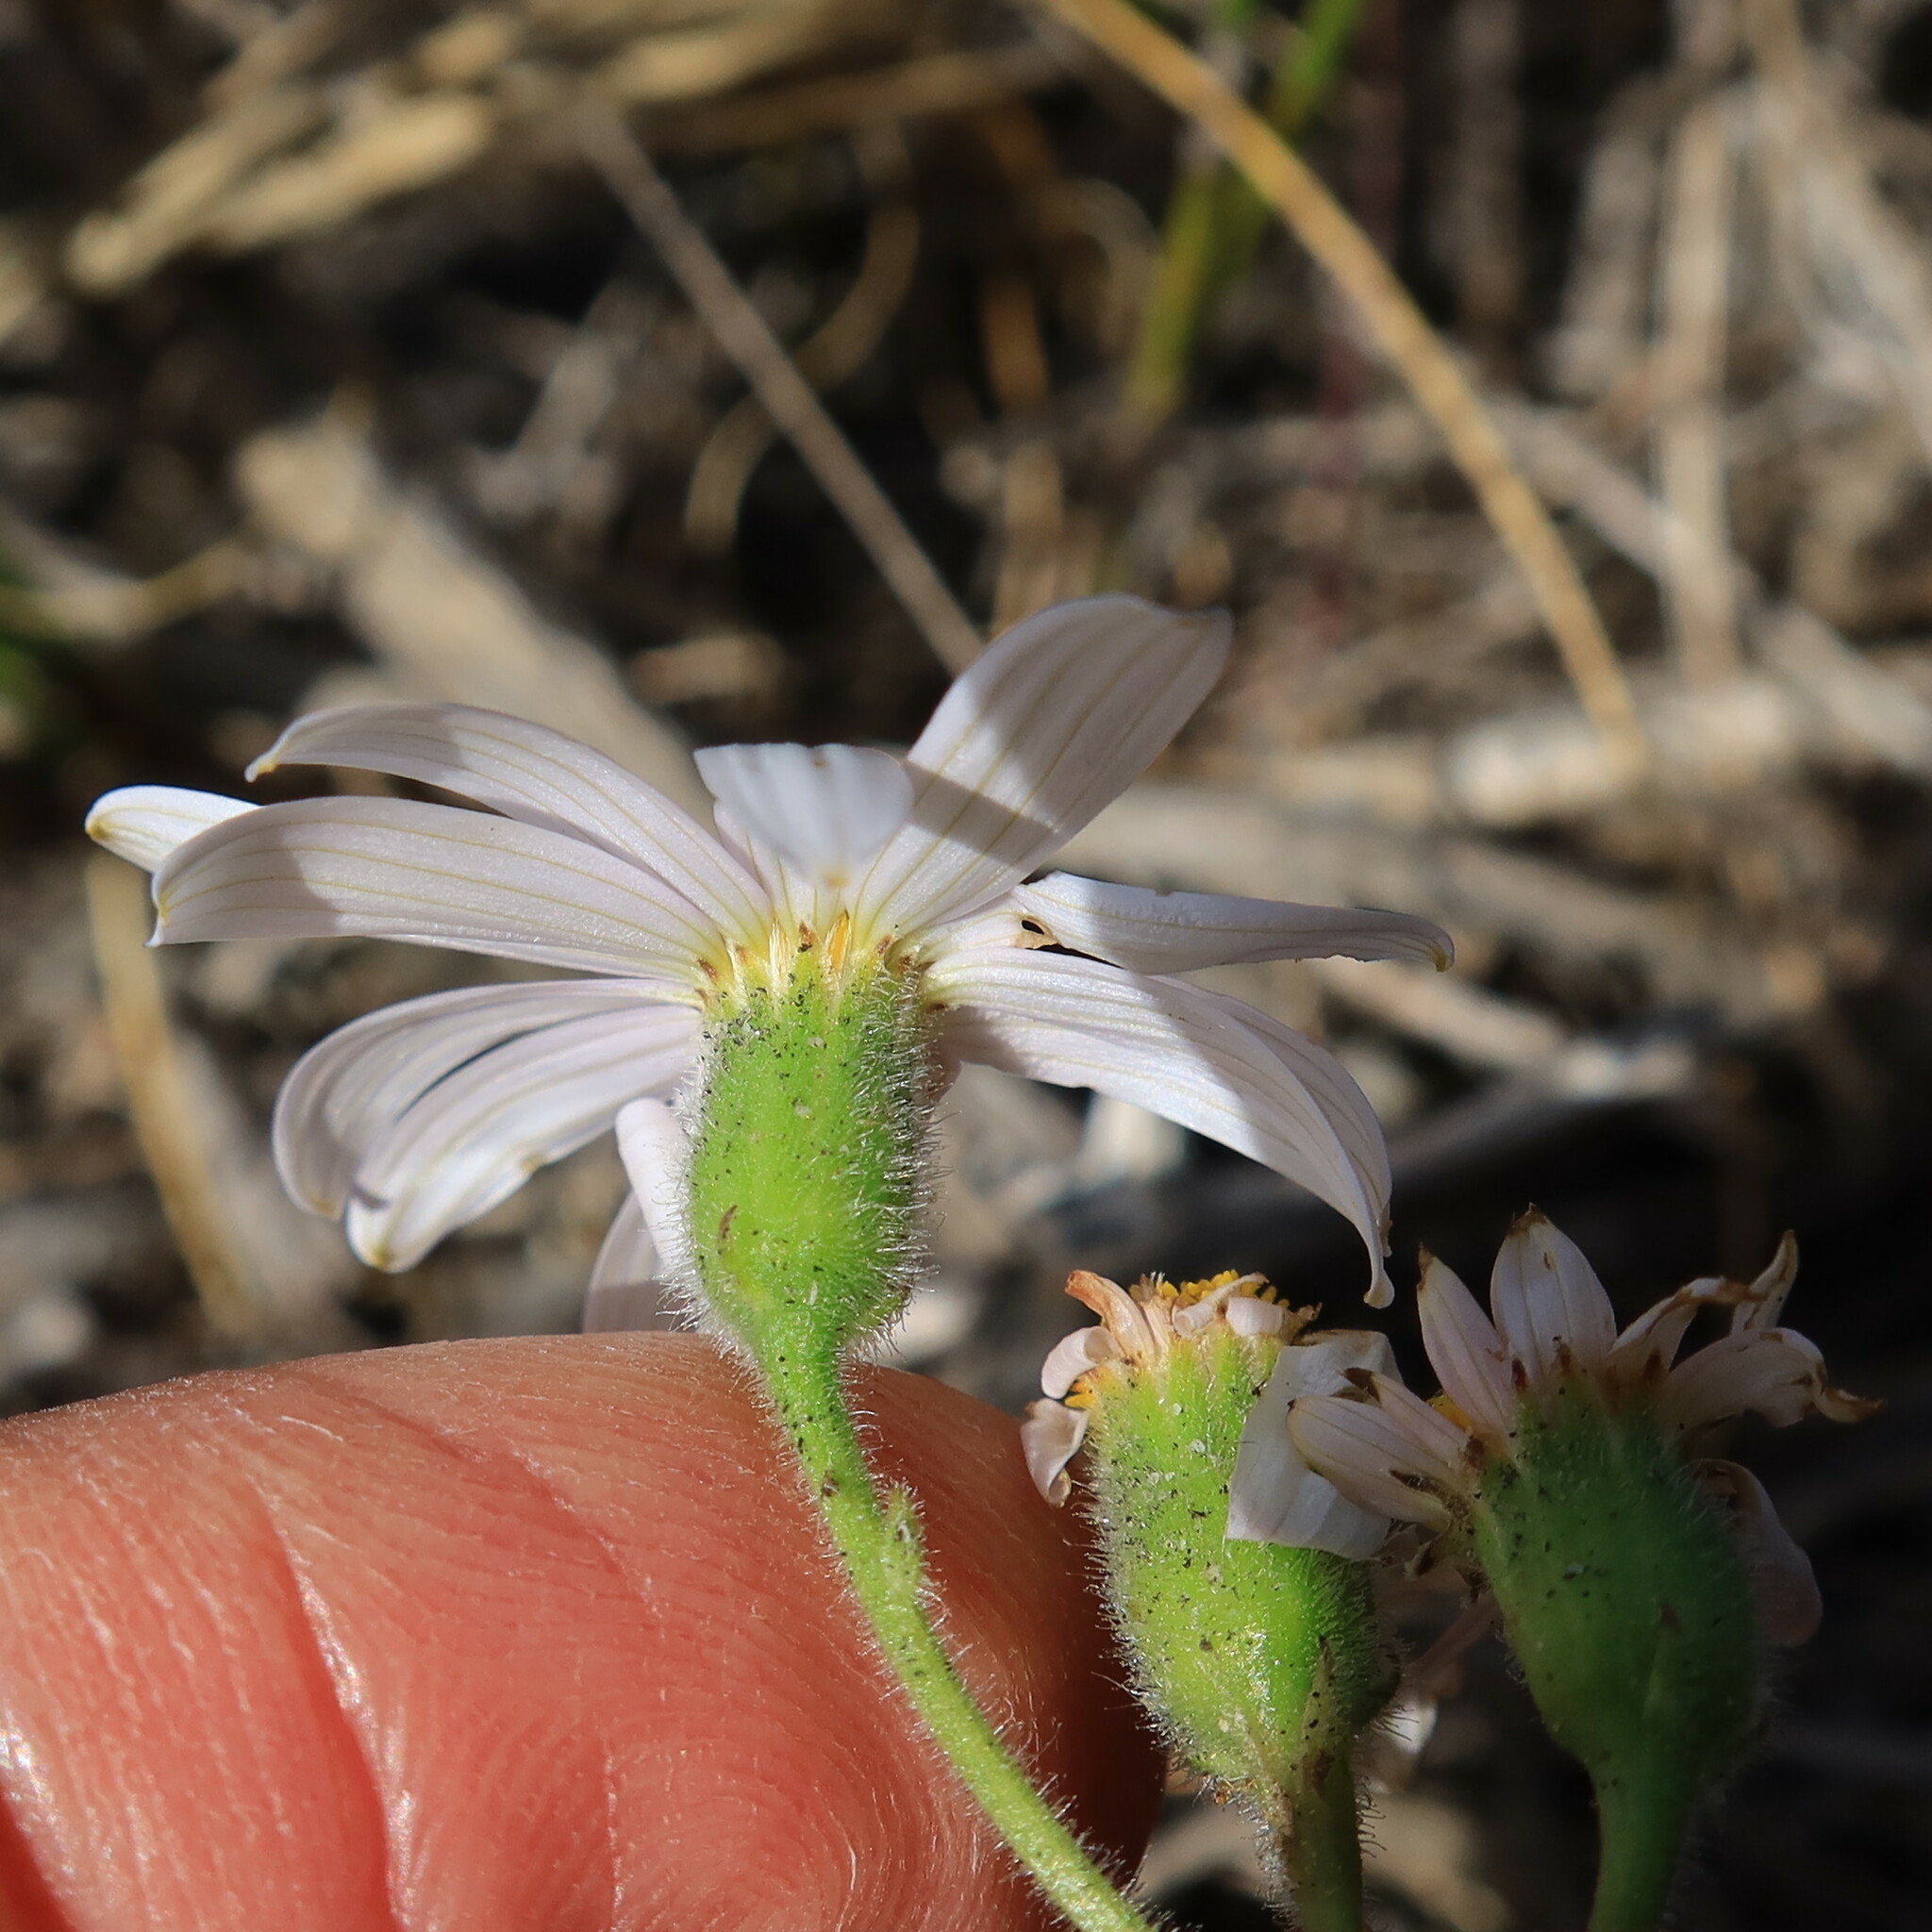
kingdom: Plantae
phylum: Tracheophyta
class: Magnoliopsida
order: Asterales
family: Asteraceae
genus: Senecio
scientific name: Senecio arenarius
